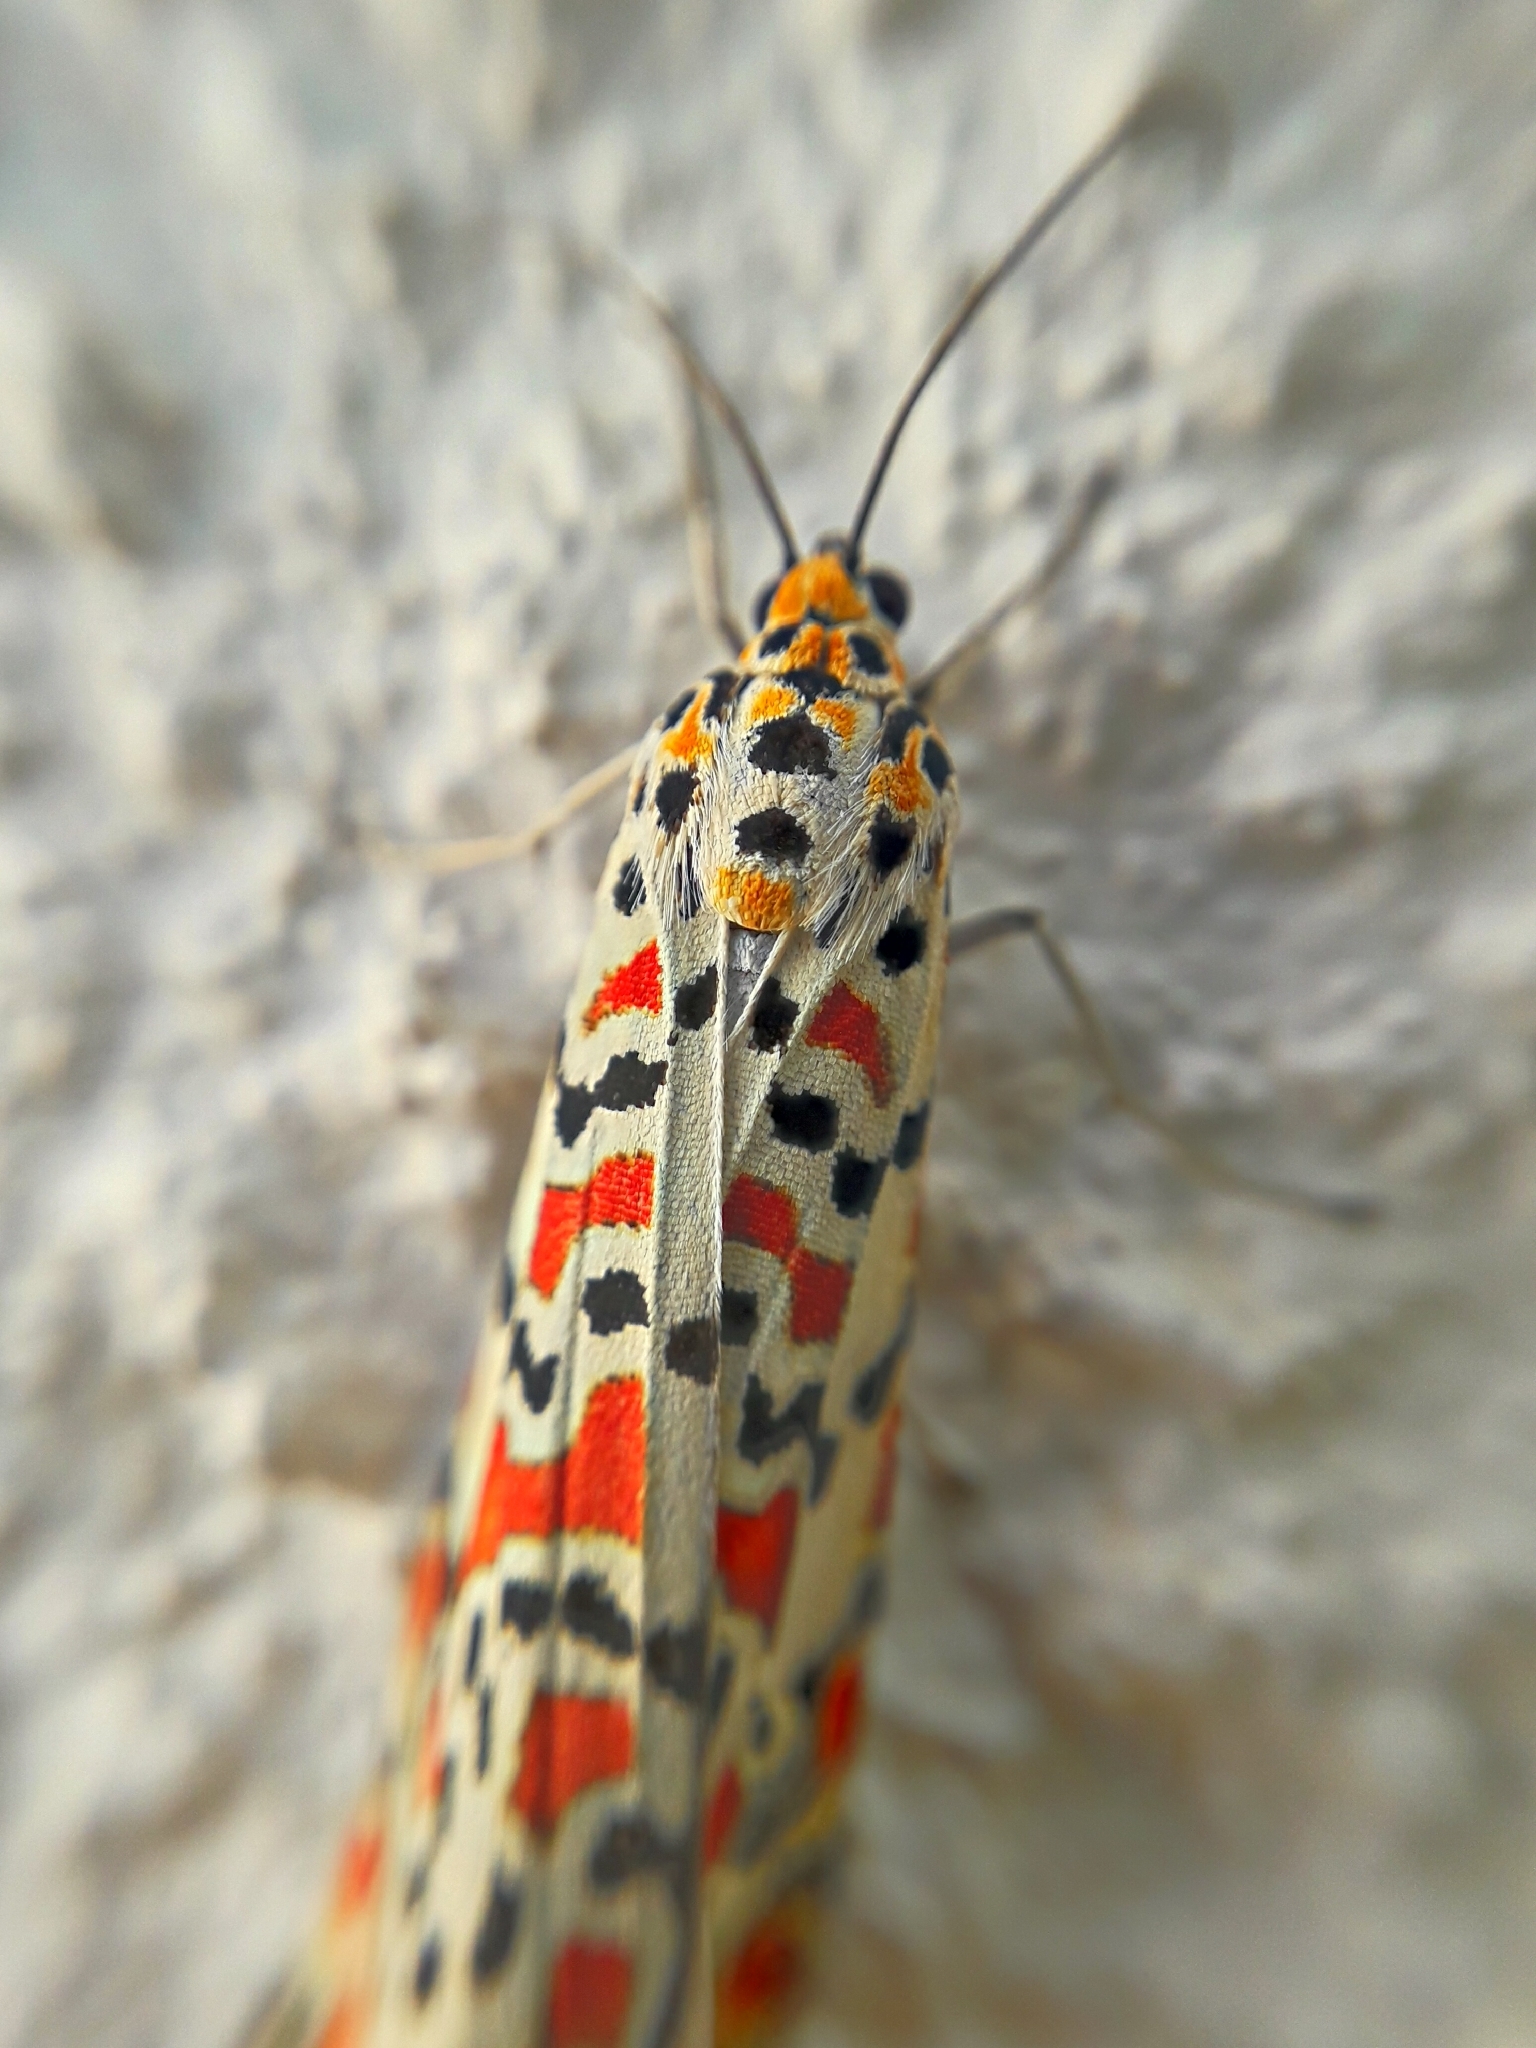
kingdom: Animalia
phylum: Arthropoda
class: Insecta
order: Lepidoptera
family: Erebidae
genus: Utetheisa
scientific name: Utetheisa pulchella
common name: Crimson speckled
